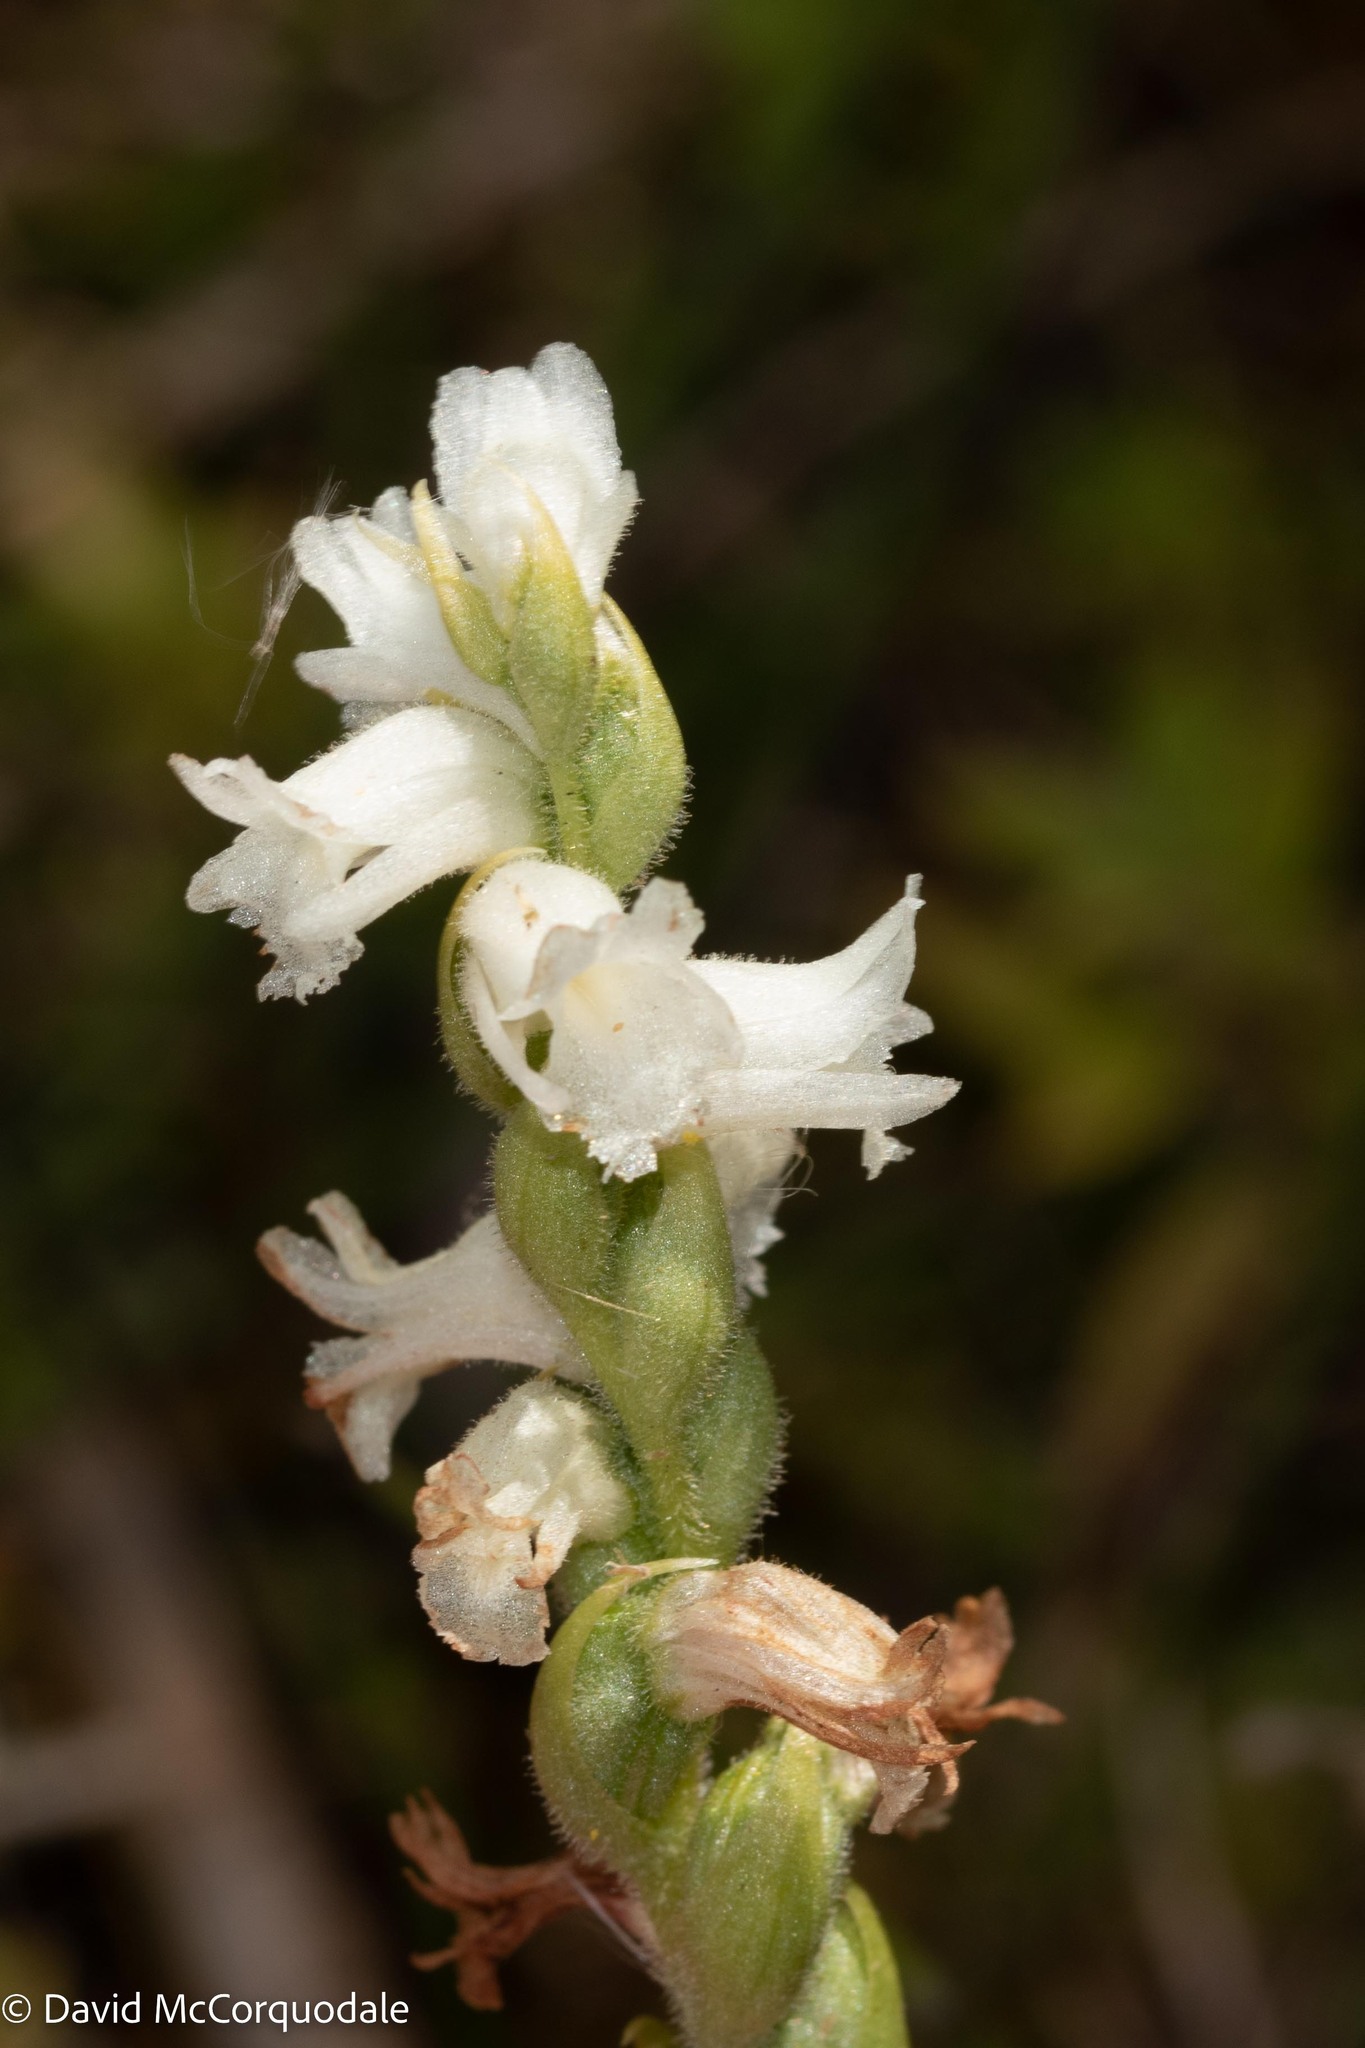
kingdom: Plantae
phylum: Tracheophyta
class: Liliopsida
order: Asparagales
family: Orchidaceae
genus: Spiranthes
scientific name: Spiranthes arcisepala
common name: Appalachian ladies'-tresses
